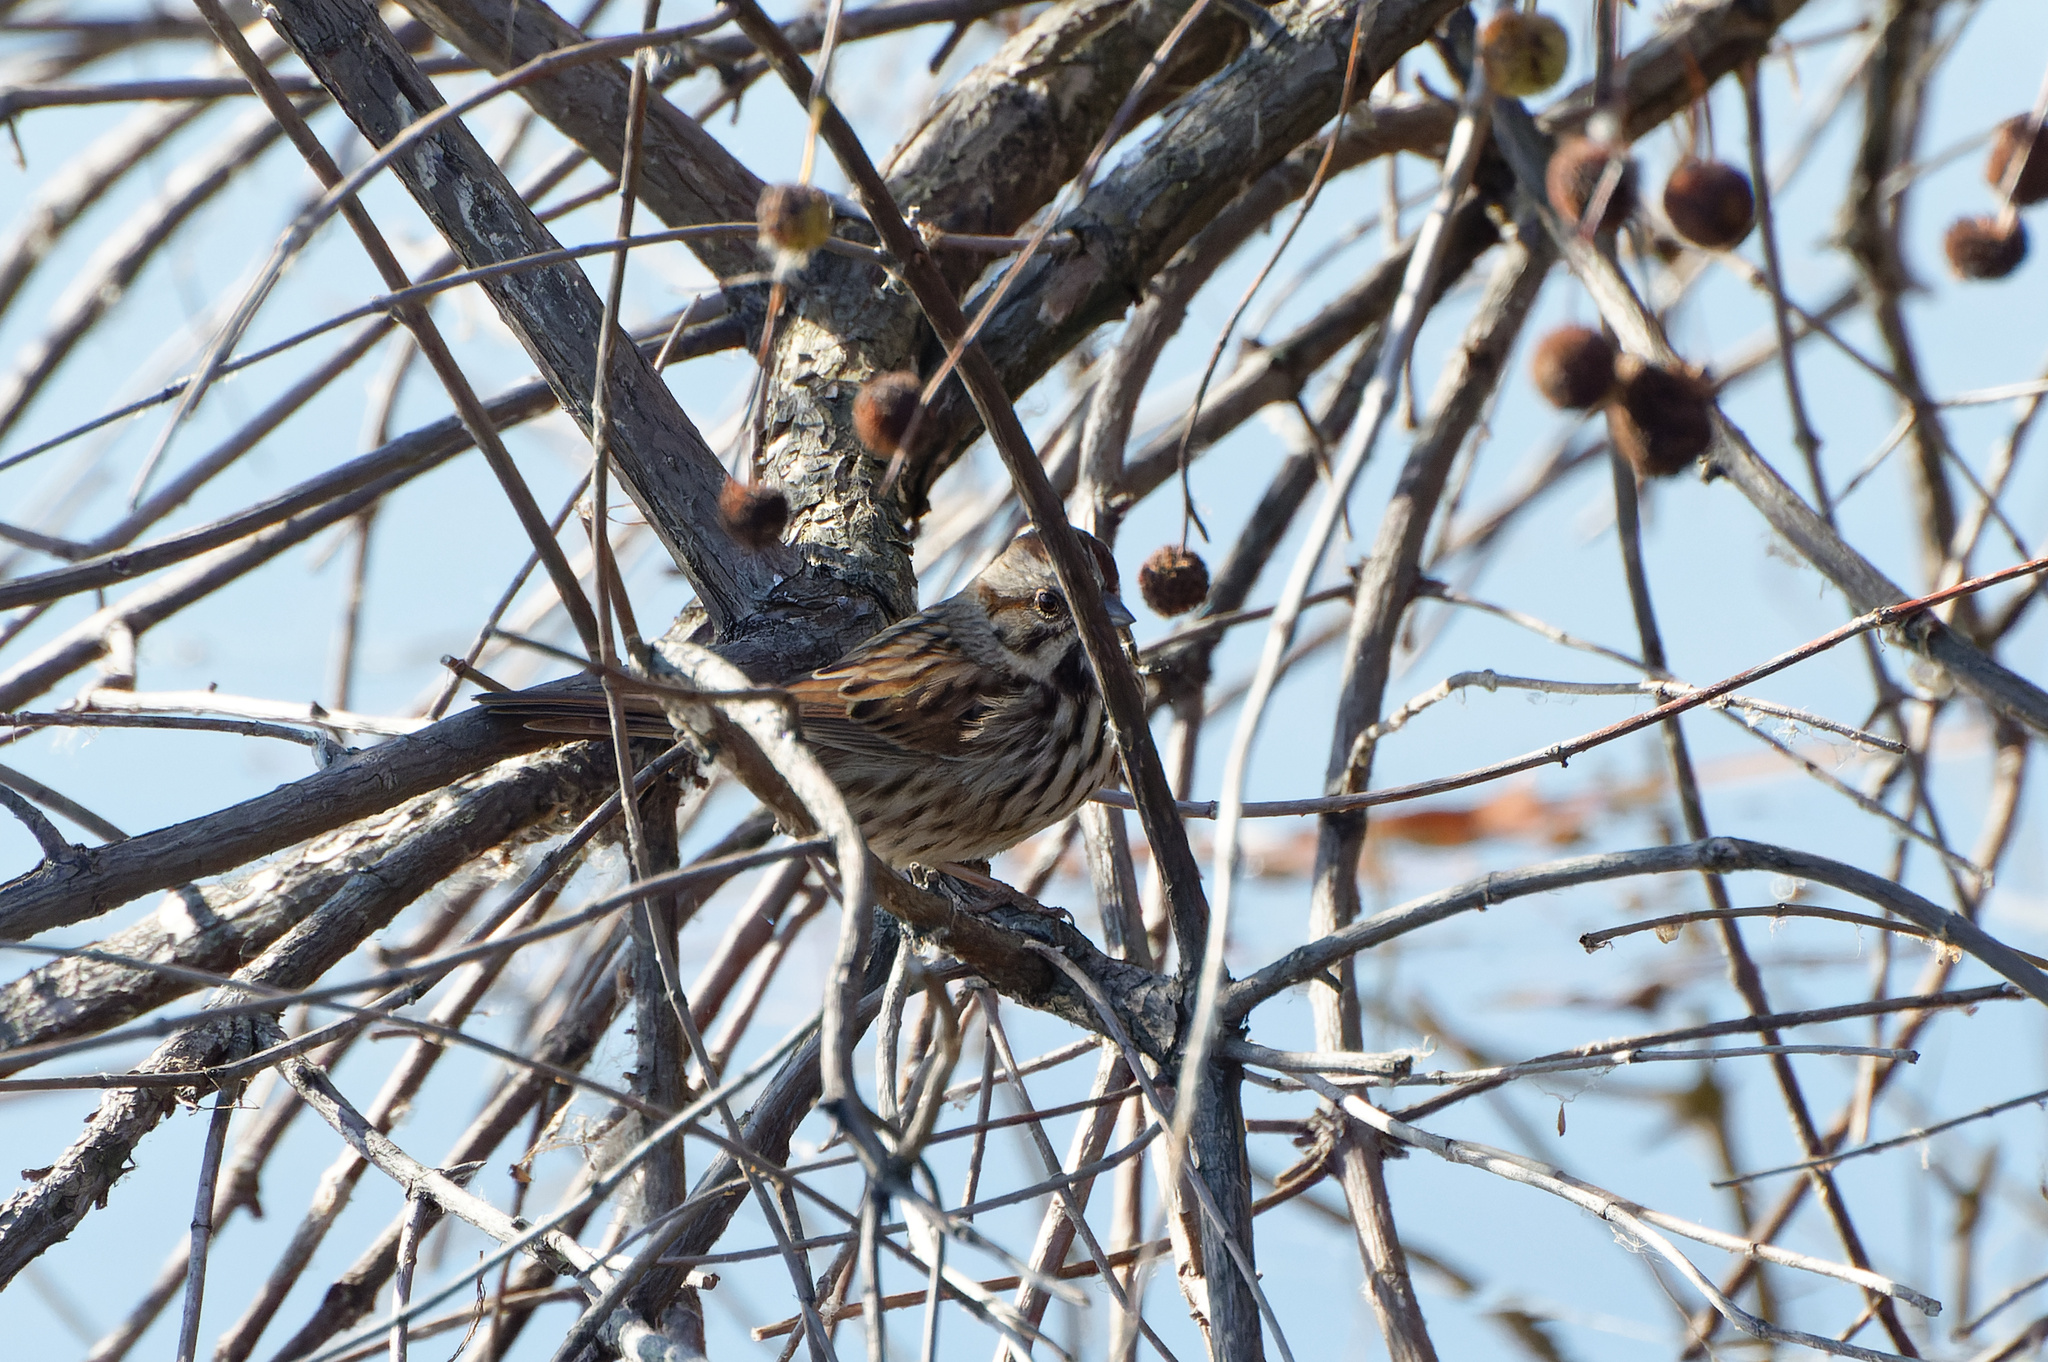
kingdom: Animalia
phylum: Chordata
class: Aves
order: Passeriformes
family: Passerellidae
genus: Melospiza
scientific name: Melospiza melodia
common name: Song sparrow
